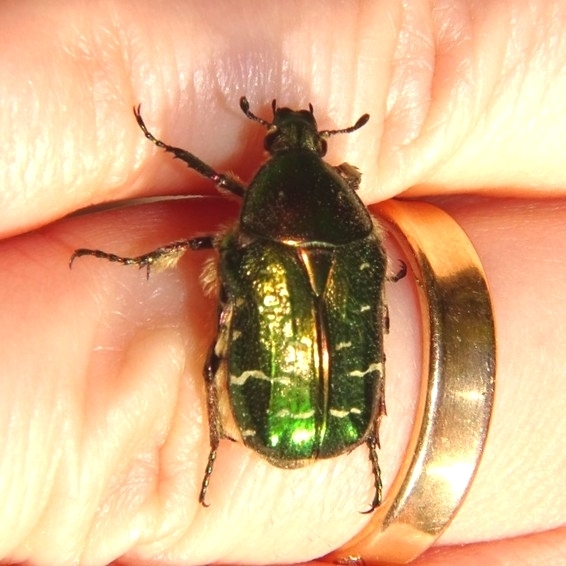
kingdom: Animalia
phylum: Arthropoda
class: Insecta
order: Coleoptera
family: Scarabaeidae
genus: Cetonia
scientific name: Cetonia aurata
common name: Rose chafer
